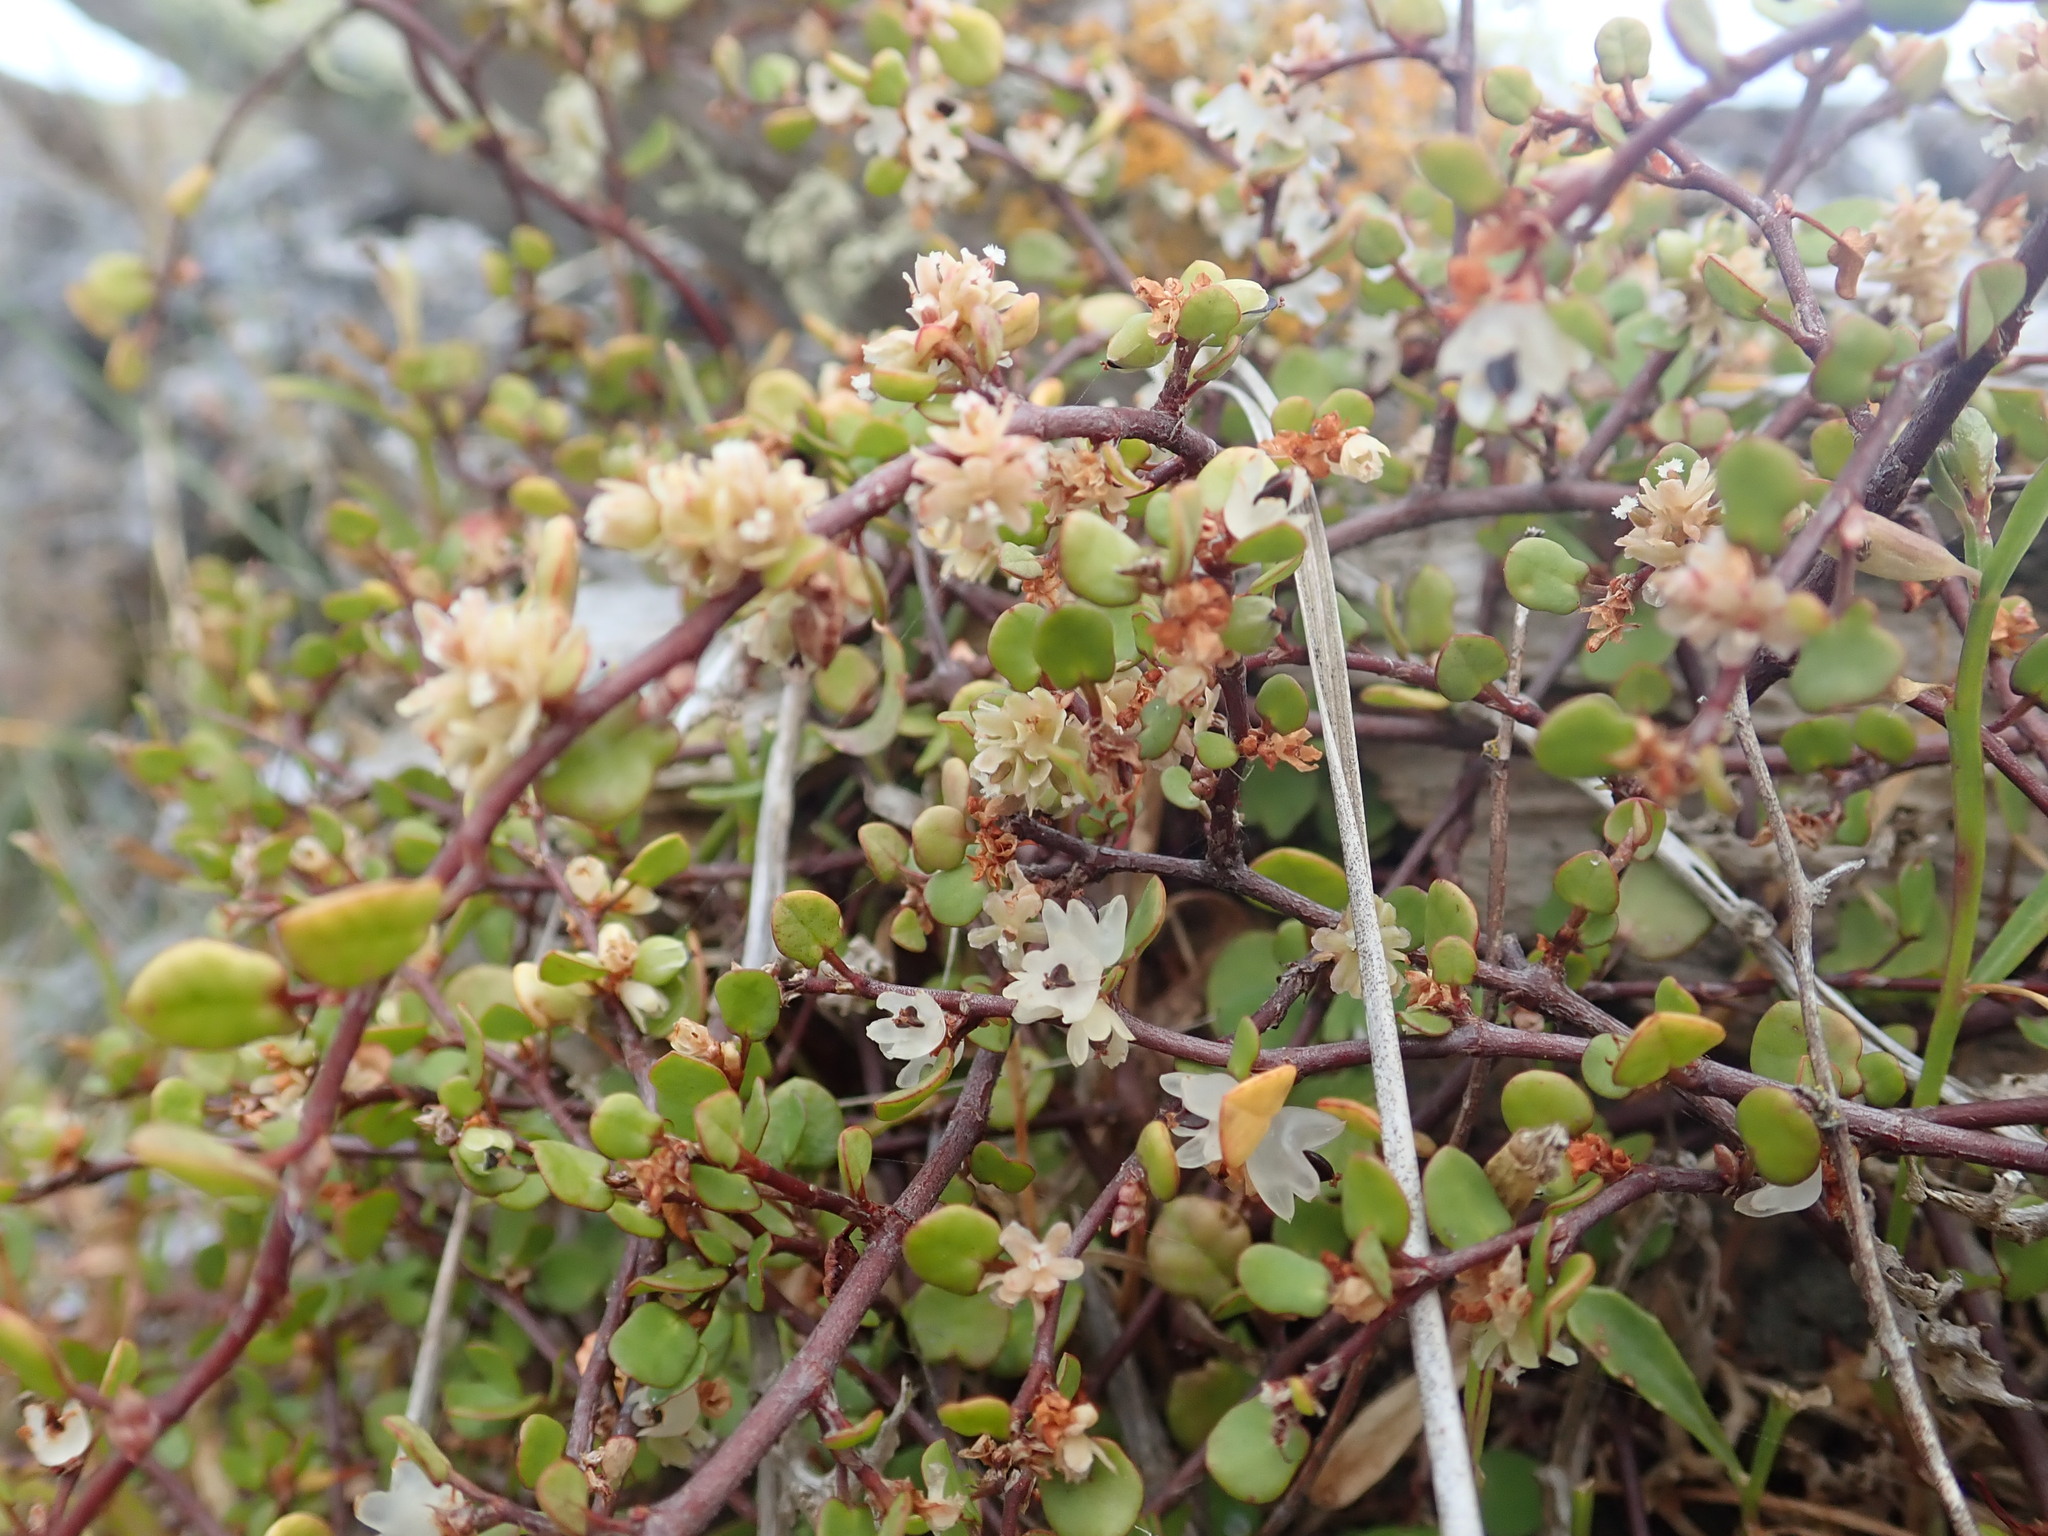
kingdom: Plantae
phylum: Tracheophyta
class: Magnoliopsida
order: Caryophyllales
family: Polygonaceae
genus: Muehlenbeckia
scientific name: Muehlenbeckia complexa
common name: Wireplant
